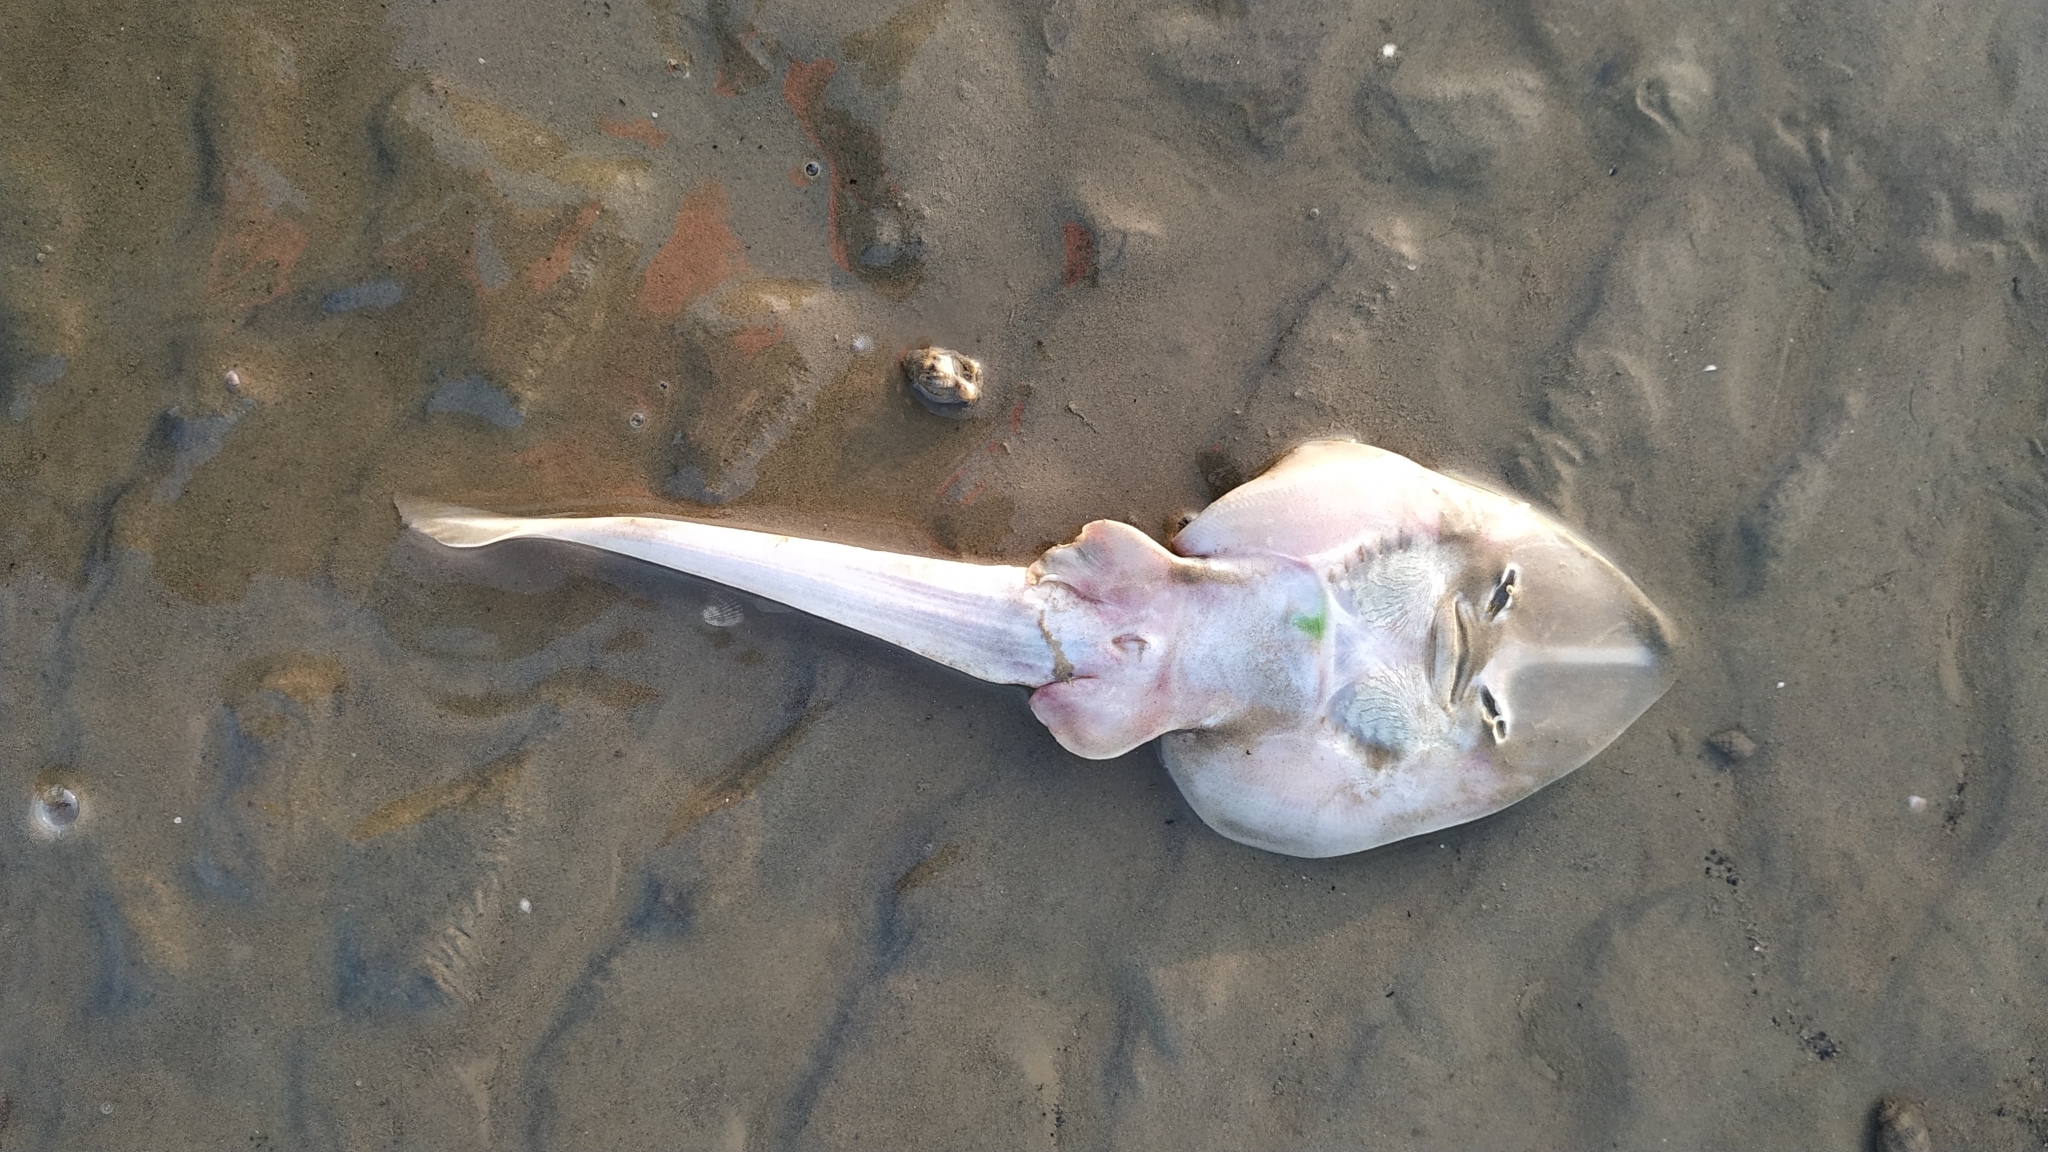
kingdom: Animalia
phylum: Chordata
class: Elasmobranchii
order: Rhinopristiformes
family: Glaucostegidae
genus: Glaucostegus
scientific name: Glaucostegus obtusus
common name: Widenose guitarfish
